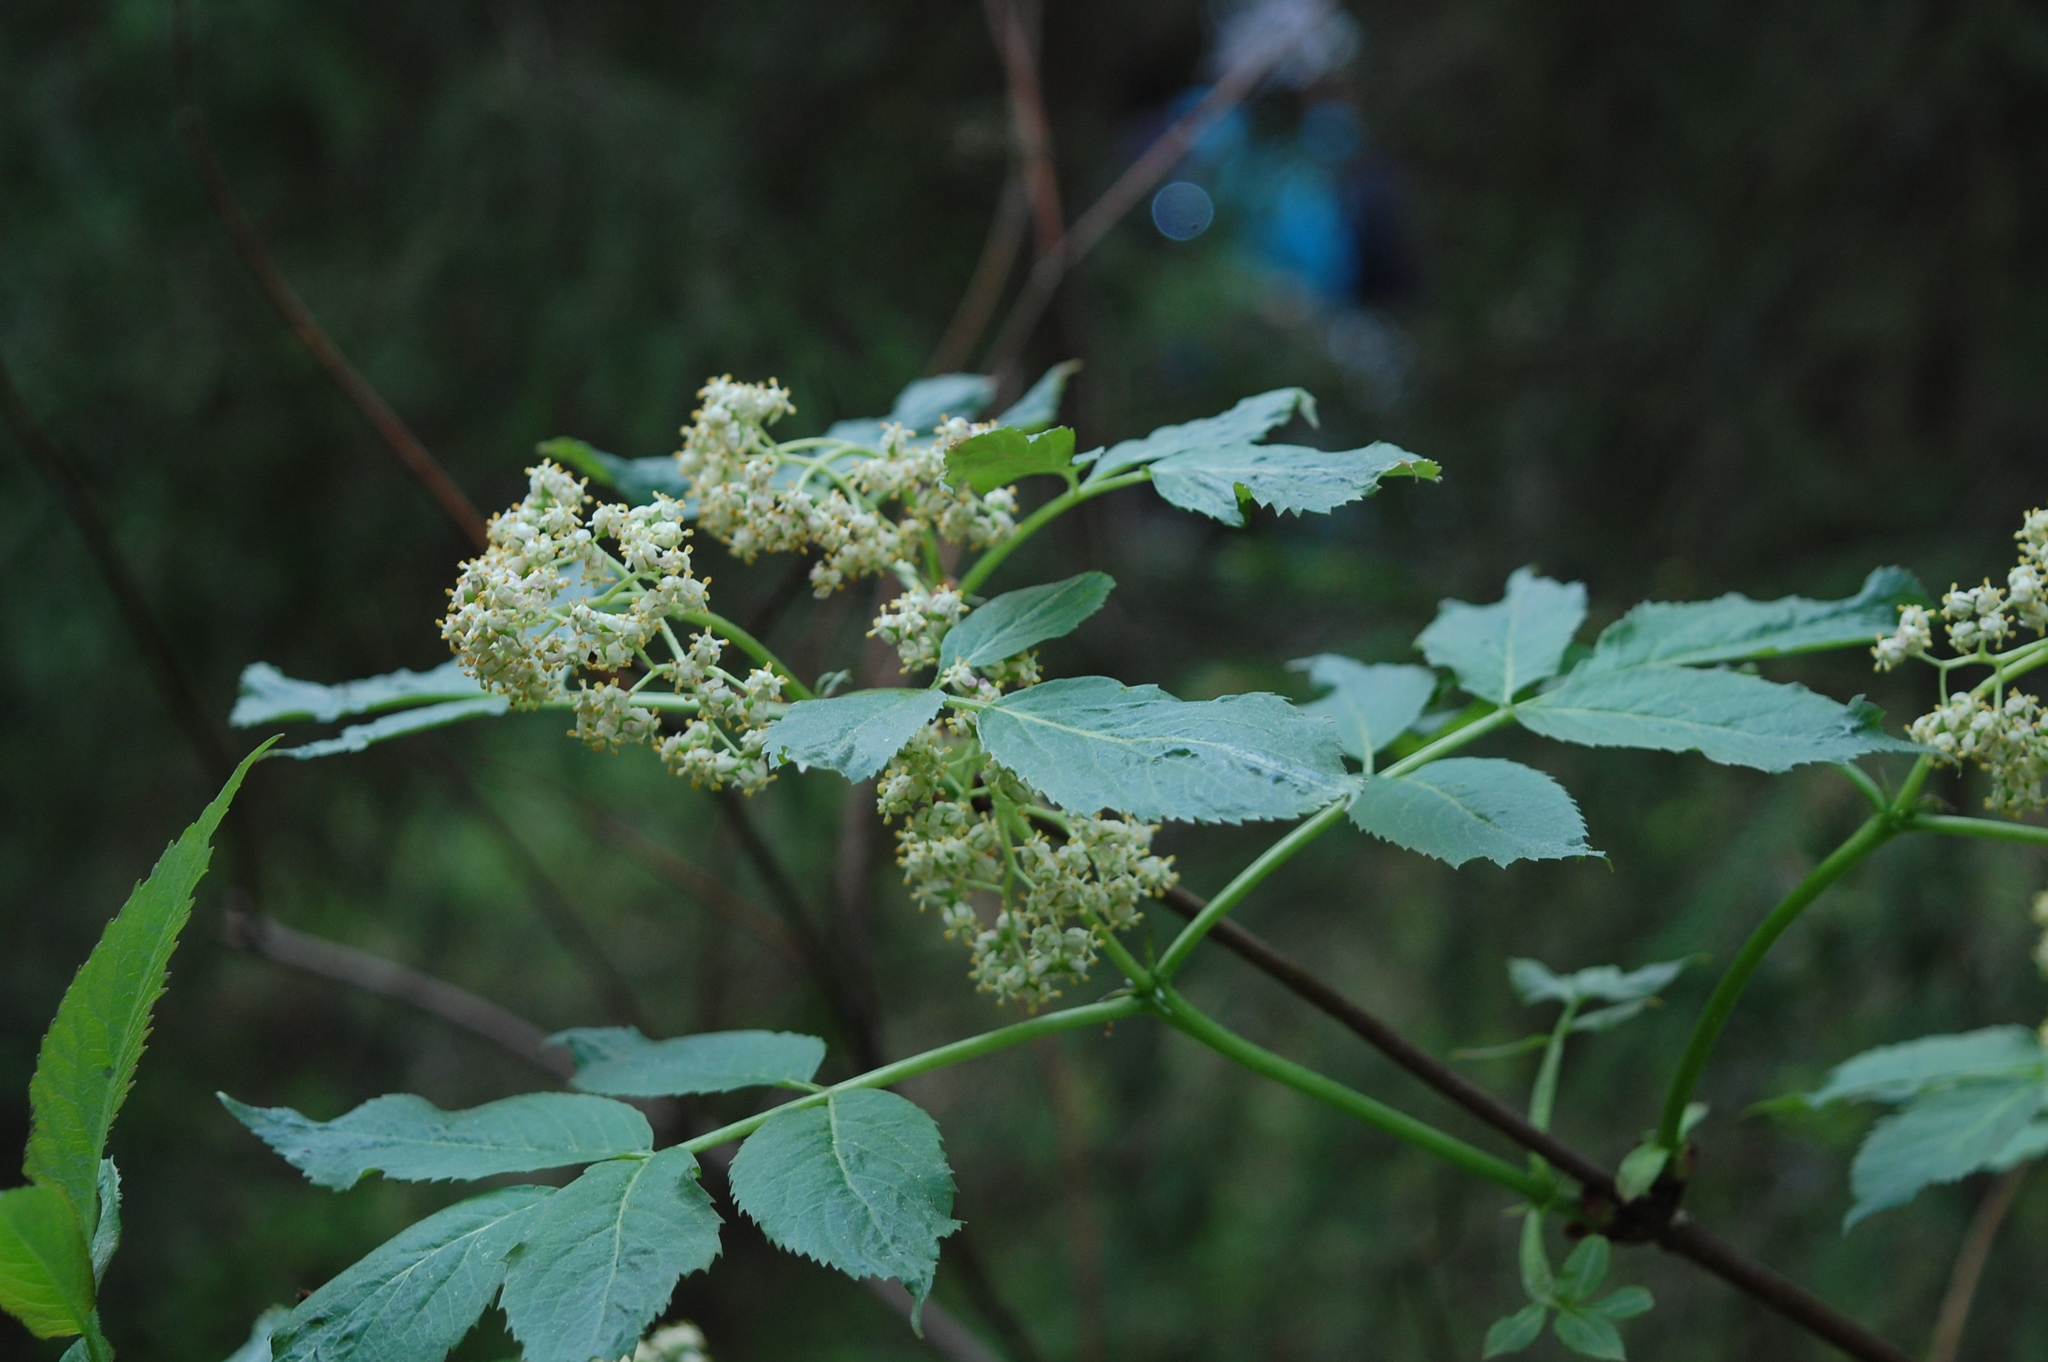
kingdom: Plantae
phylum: Tracheophyta
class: Magnoliopsida
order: Dipsacales
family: Viburnaceae
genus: Sambucus
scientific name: Sambucus racemosa
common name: Red-berried elder
